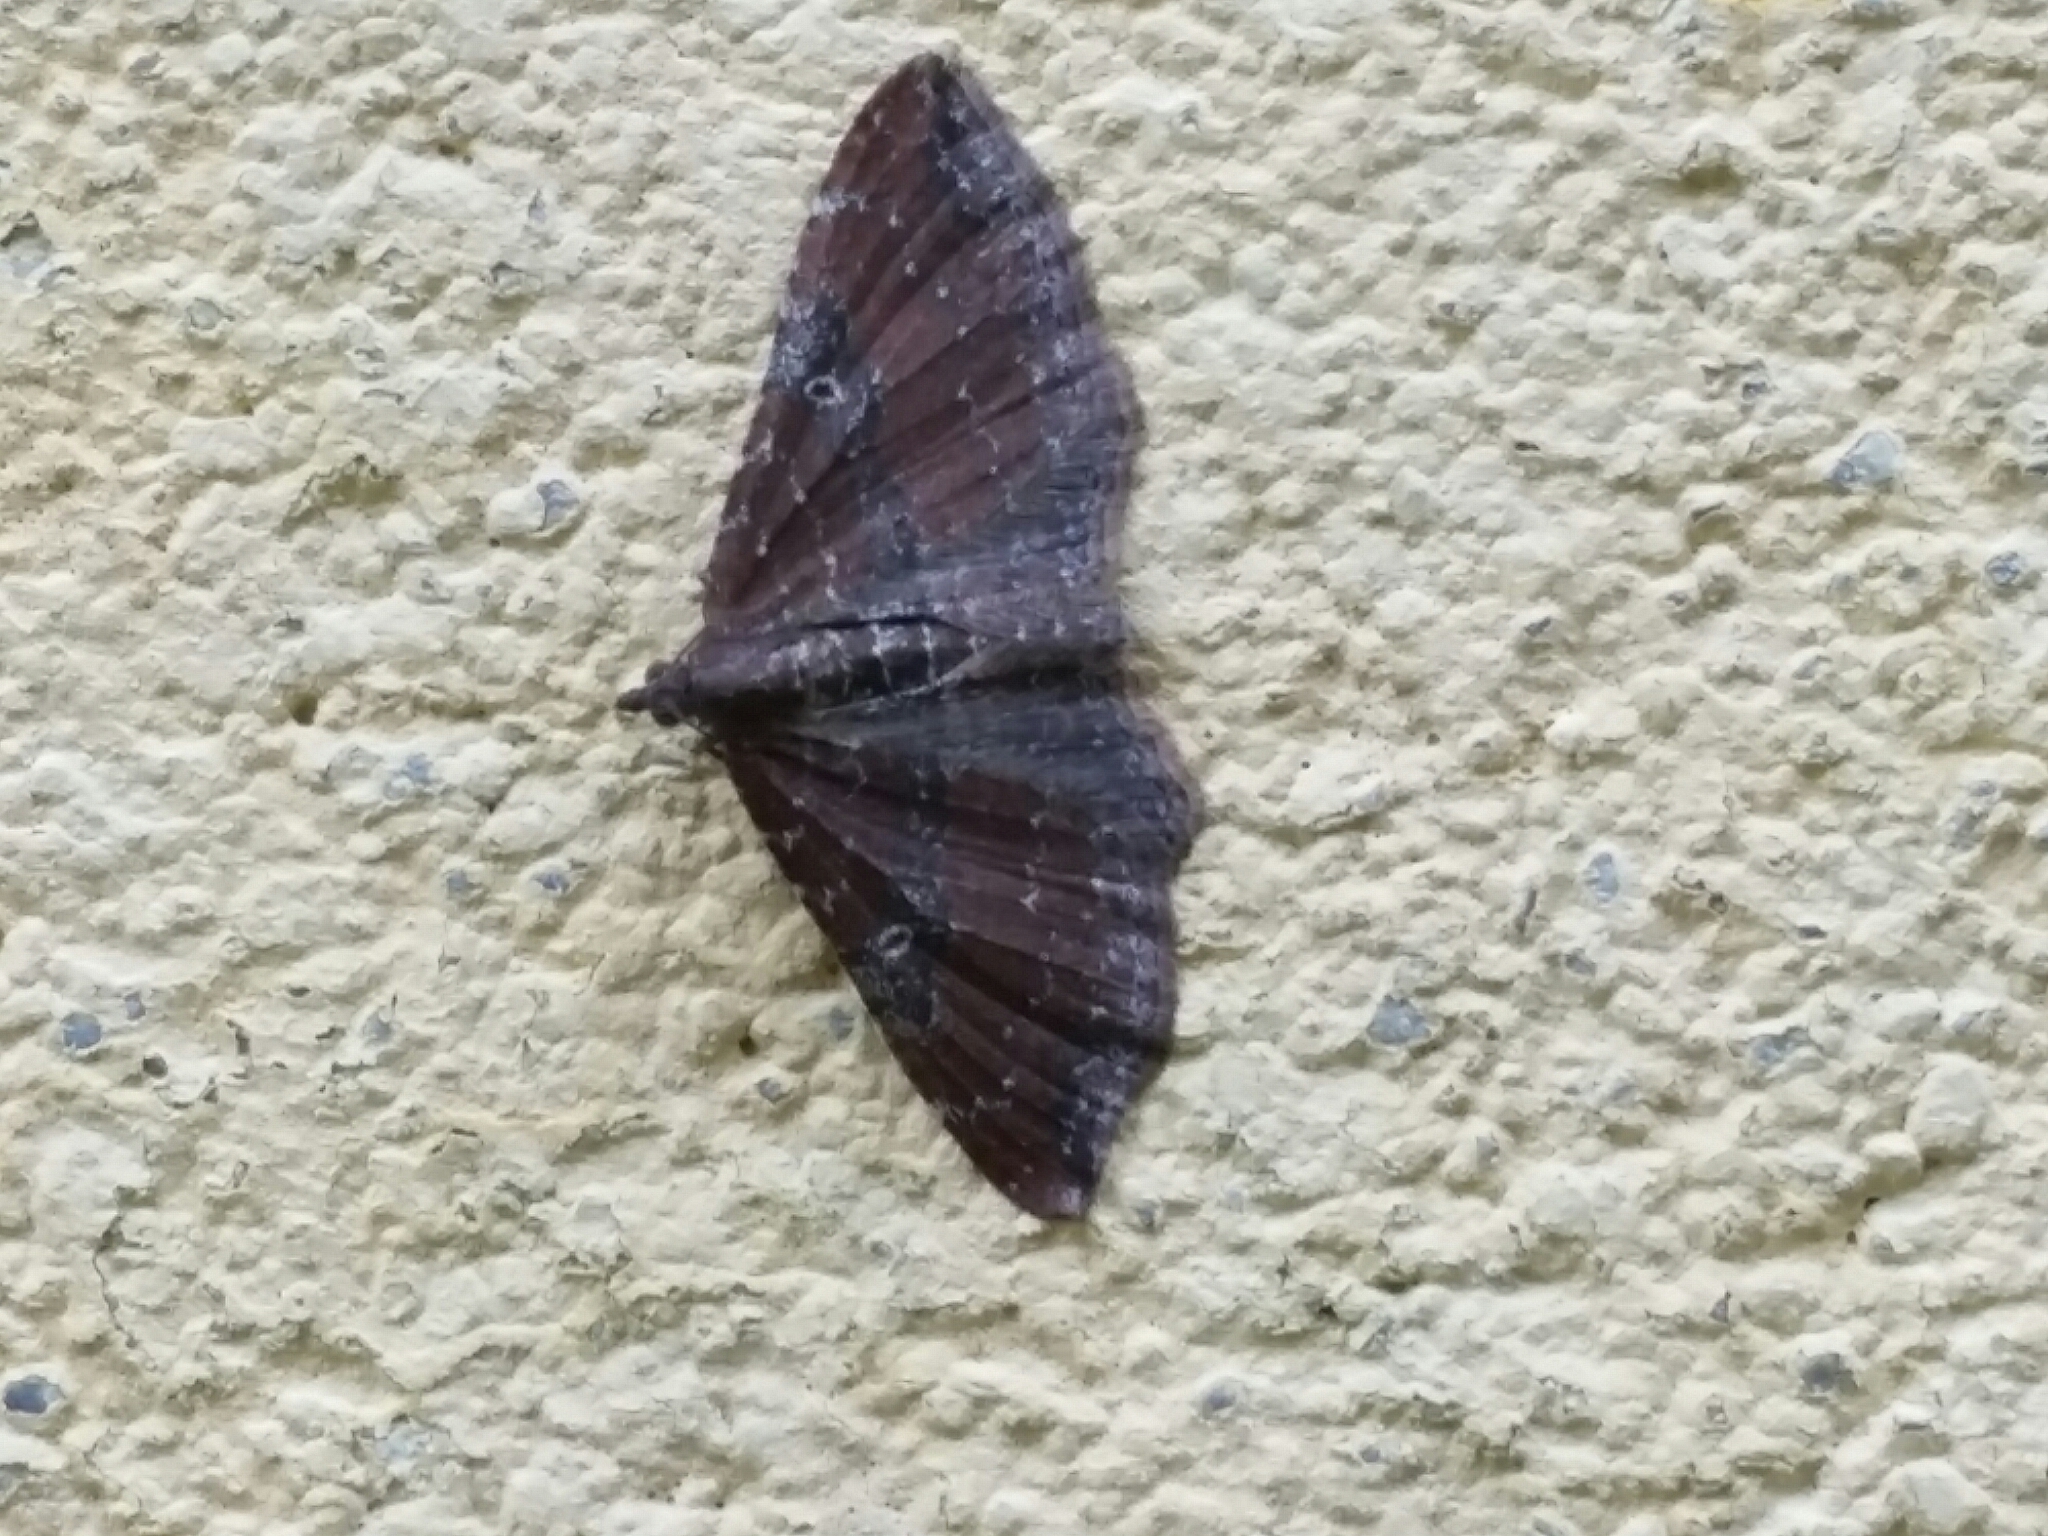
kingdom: Animalia
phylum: Arthropoda
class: Insecta
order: Lepidoptera
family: Geometridae
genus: Orthonama
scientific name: Orthonama obstipata
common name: The gem
